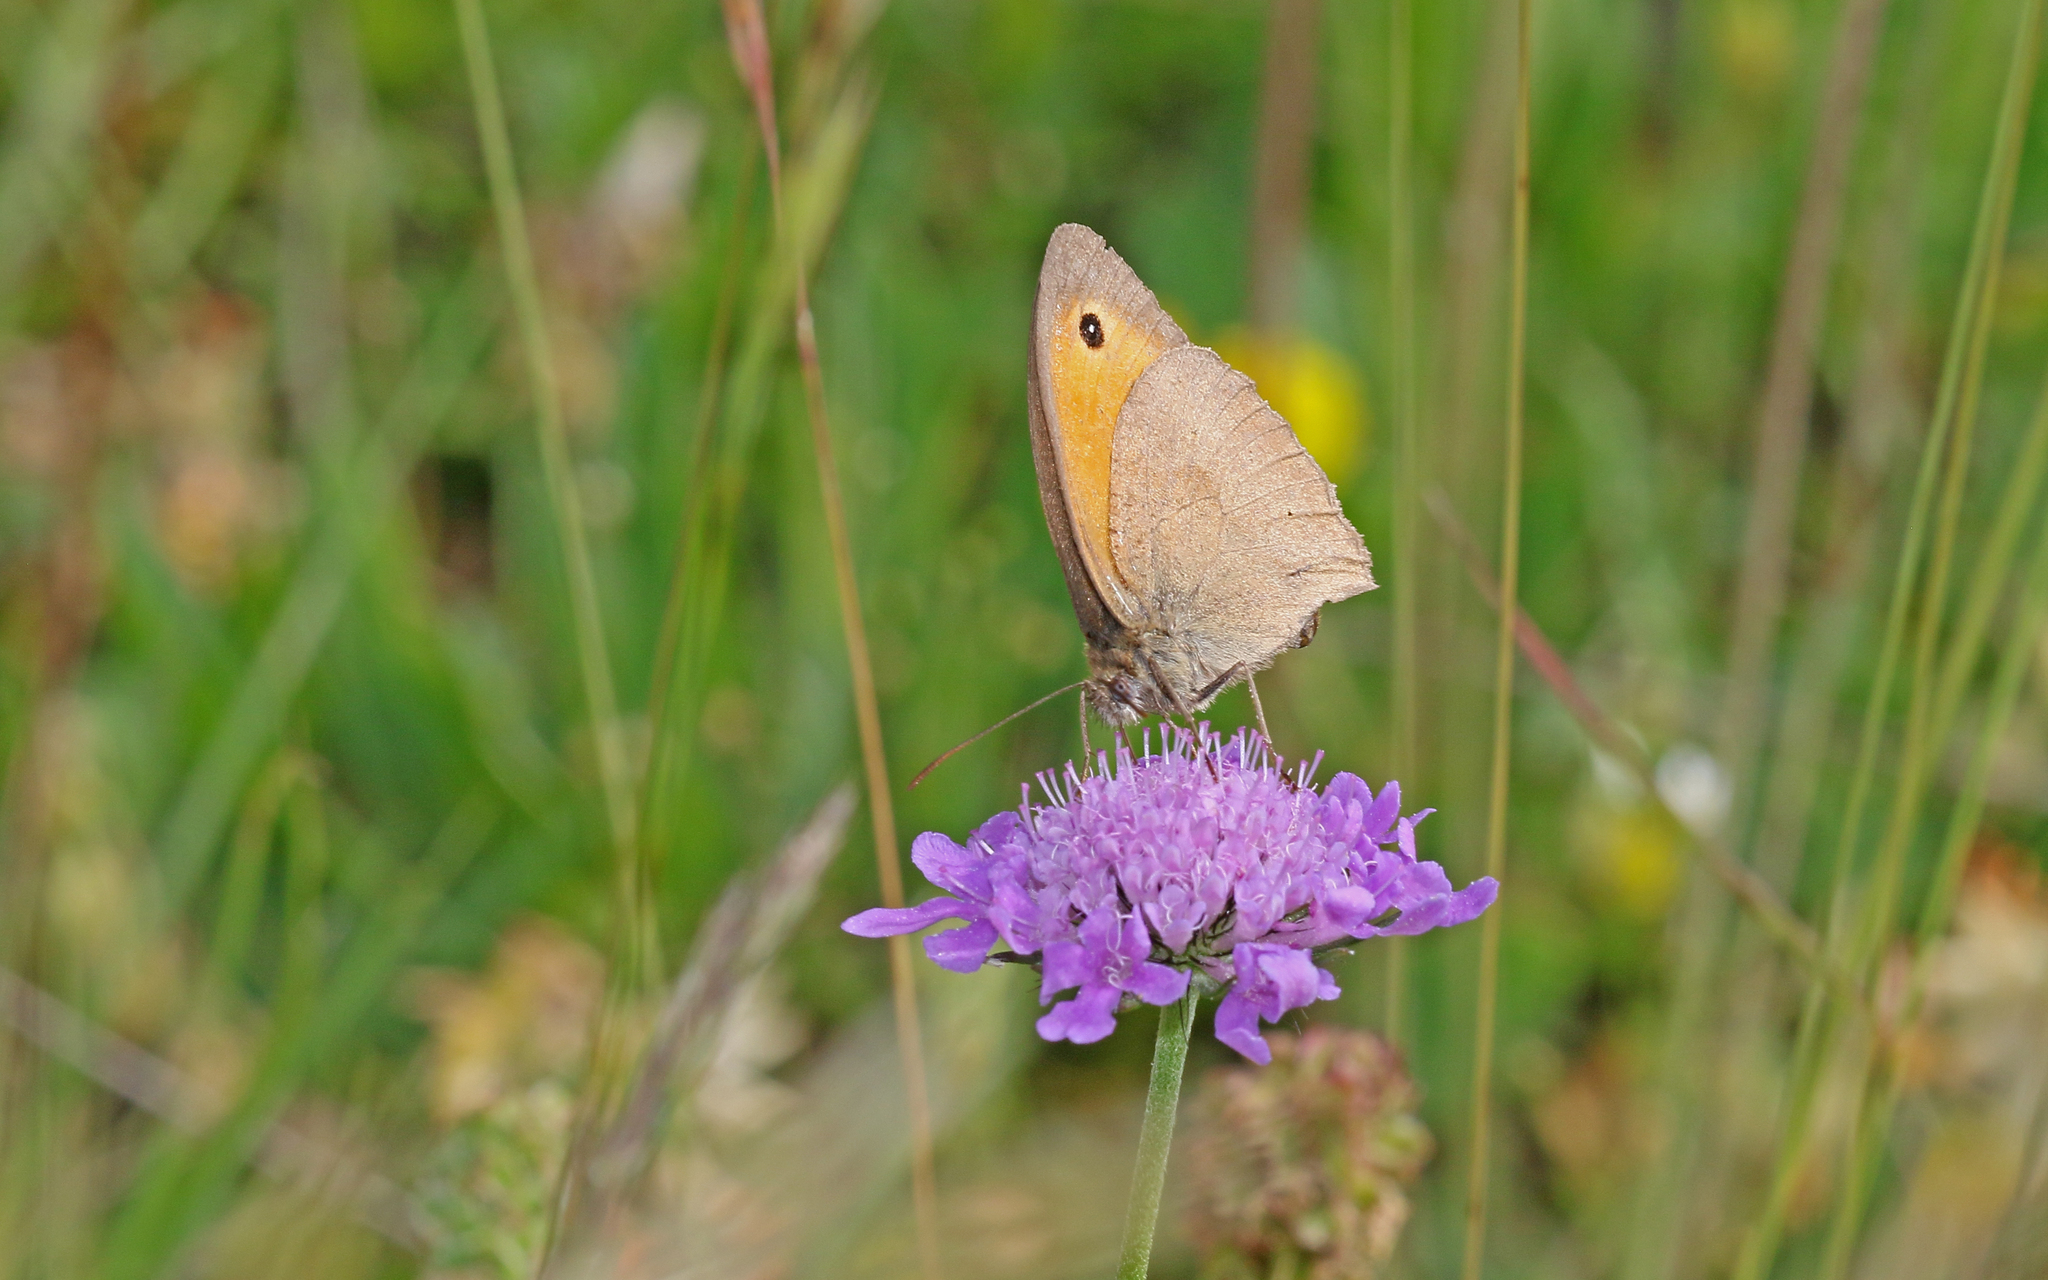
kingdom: Animalia
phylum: Arthropoda
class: Insecta
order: Lepidoptera
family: Nymphalidae
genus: Maniola
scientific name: Maniola jurtina
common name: Meadow brown
